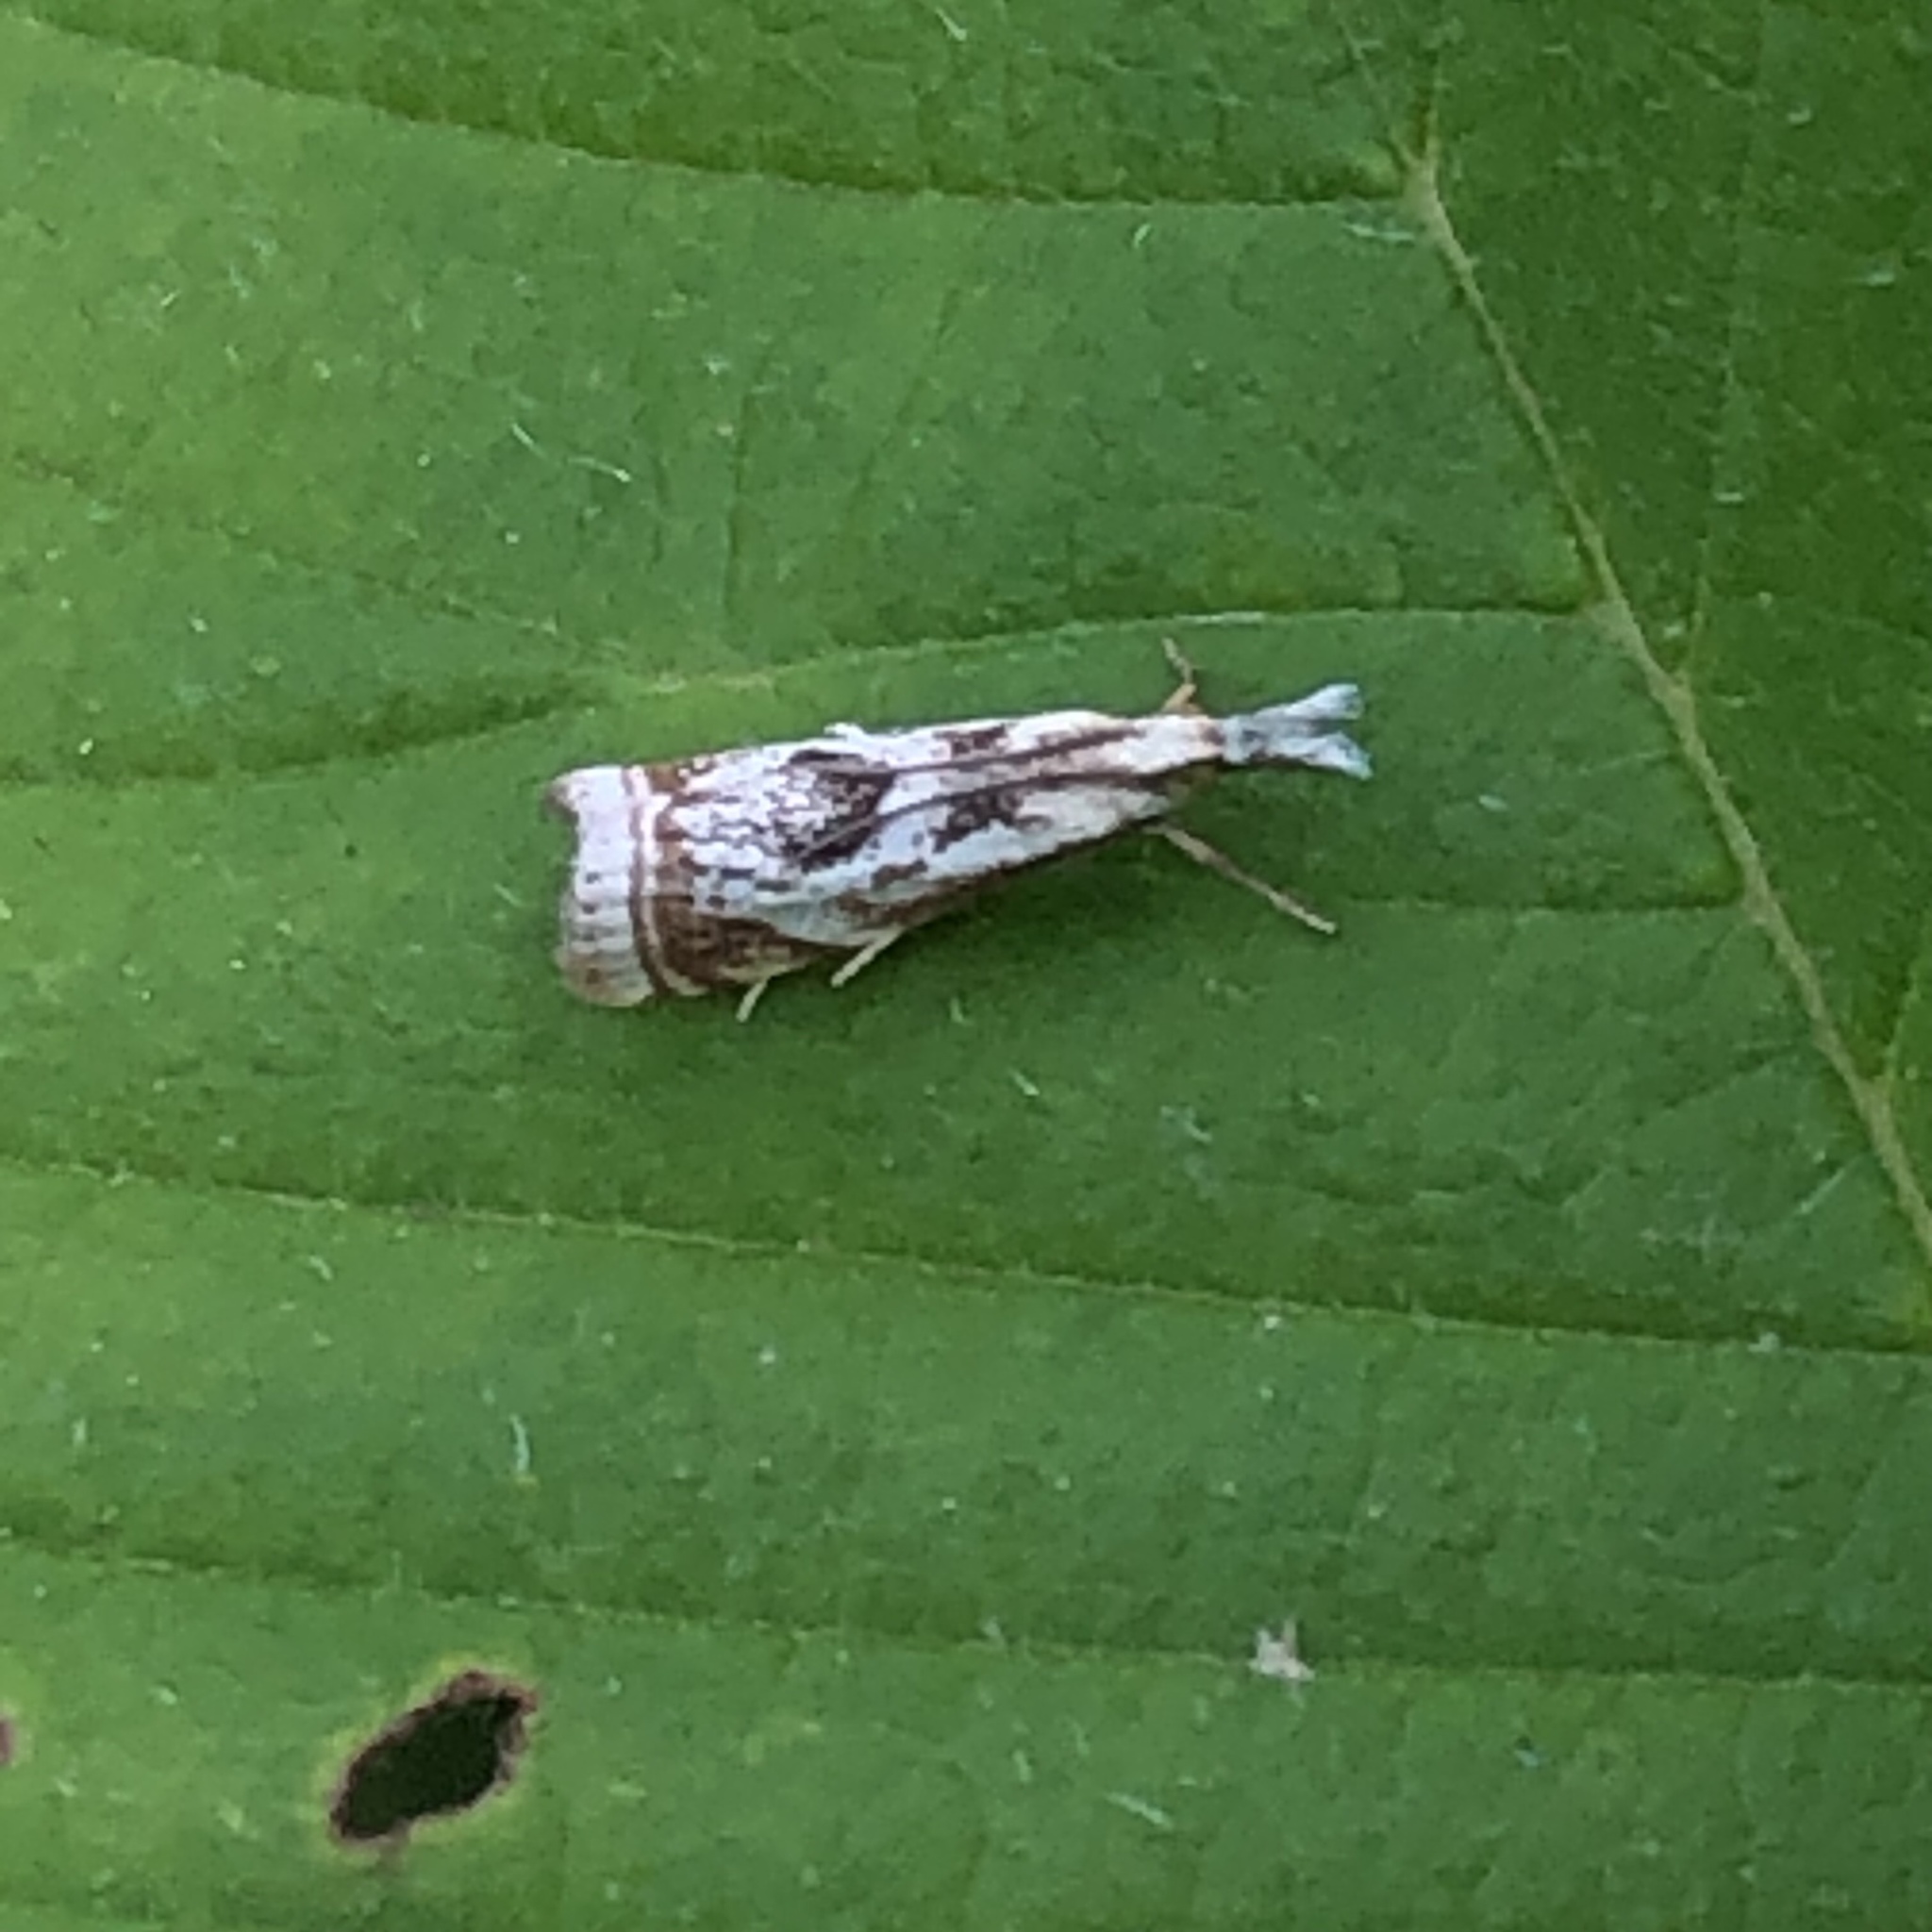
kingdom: Animalia
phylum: Arthropoda
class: Insecta
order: Lepidoptera
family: Crambidae
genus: Microcrambus
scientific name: Microcrambus elegans
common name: Elegant grass-veneer
